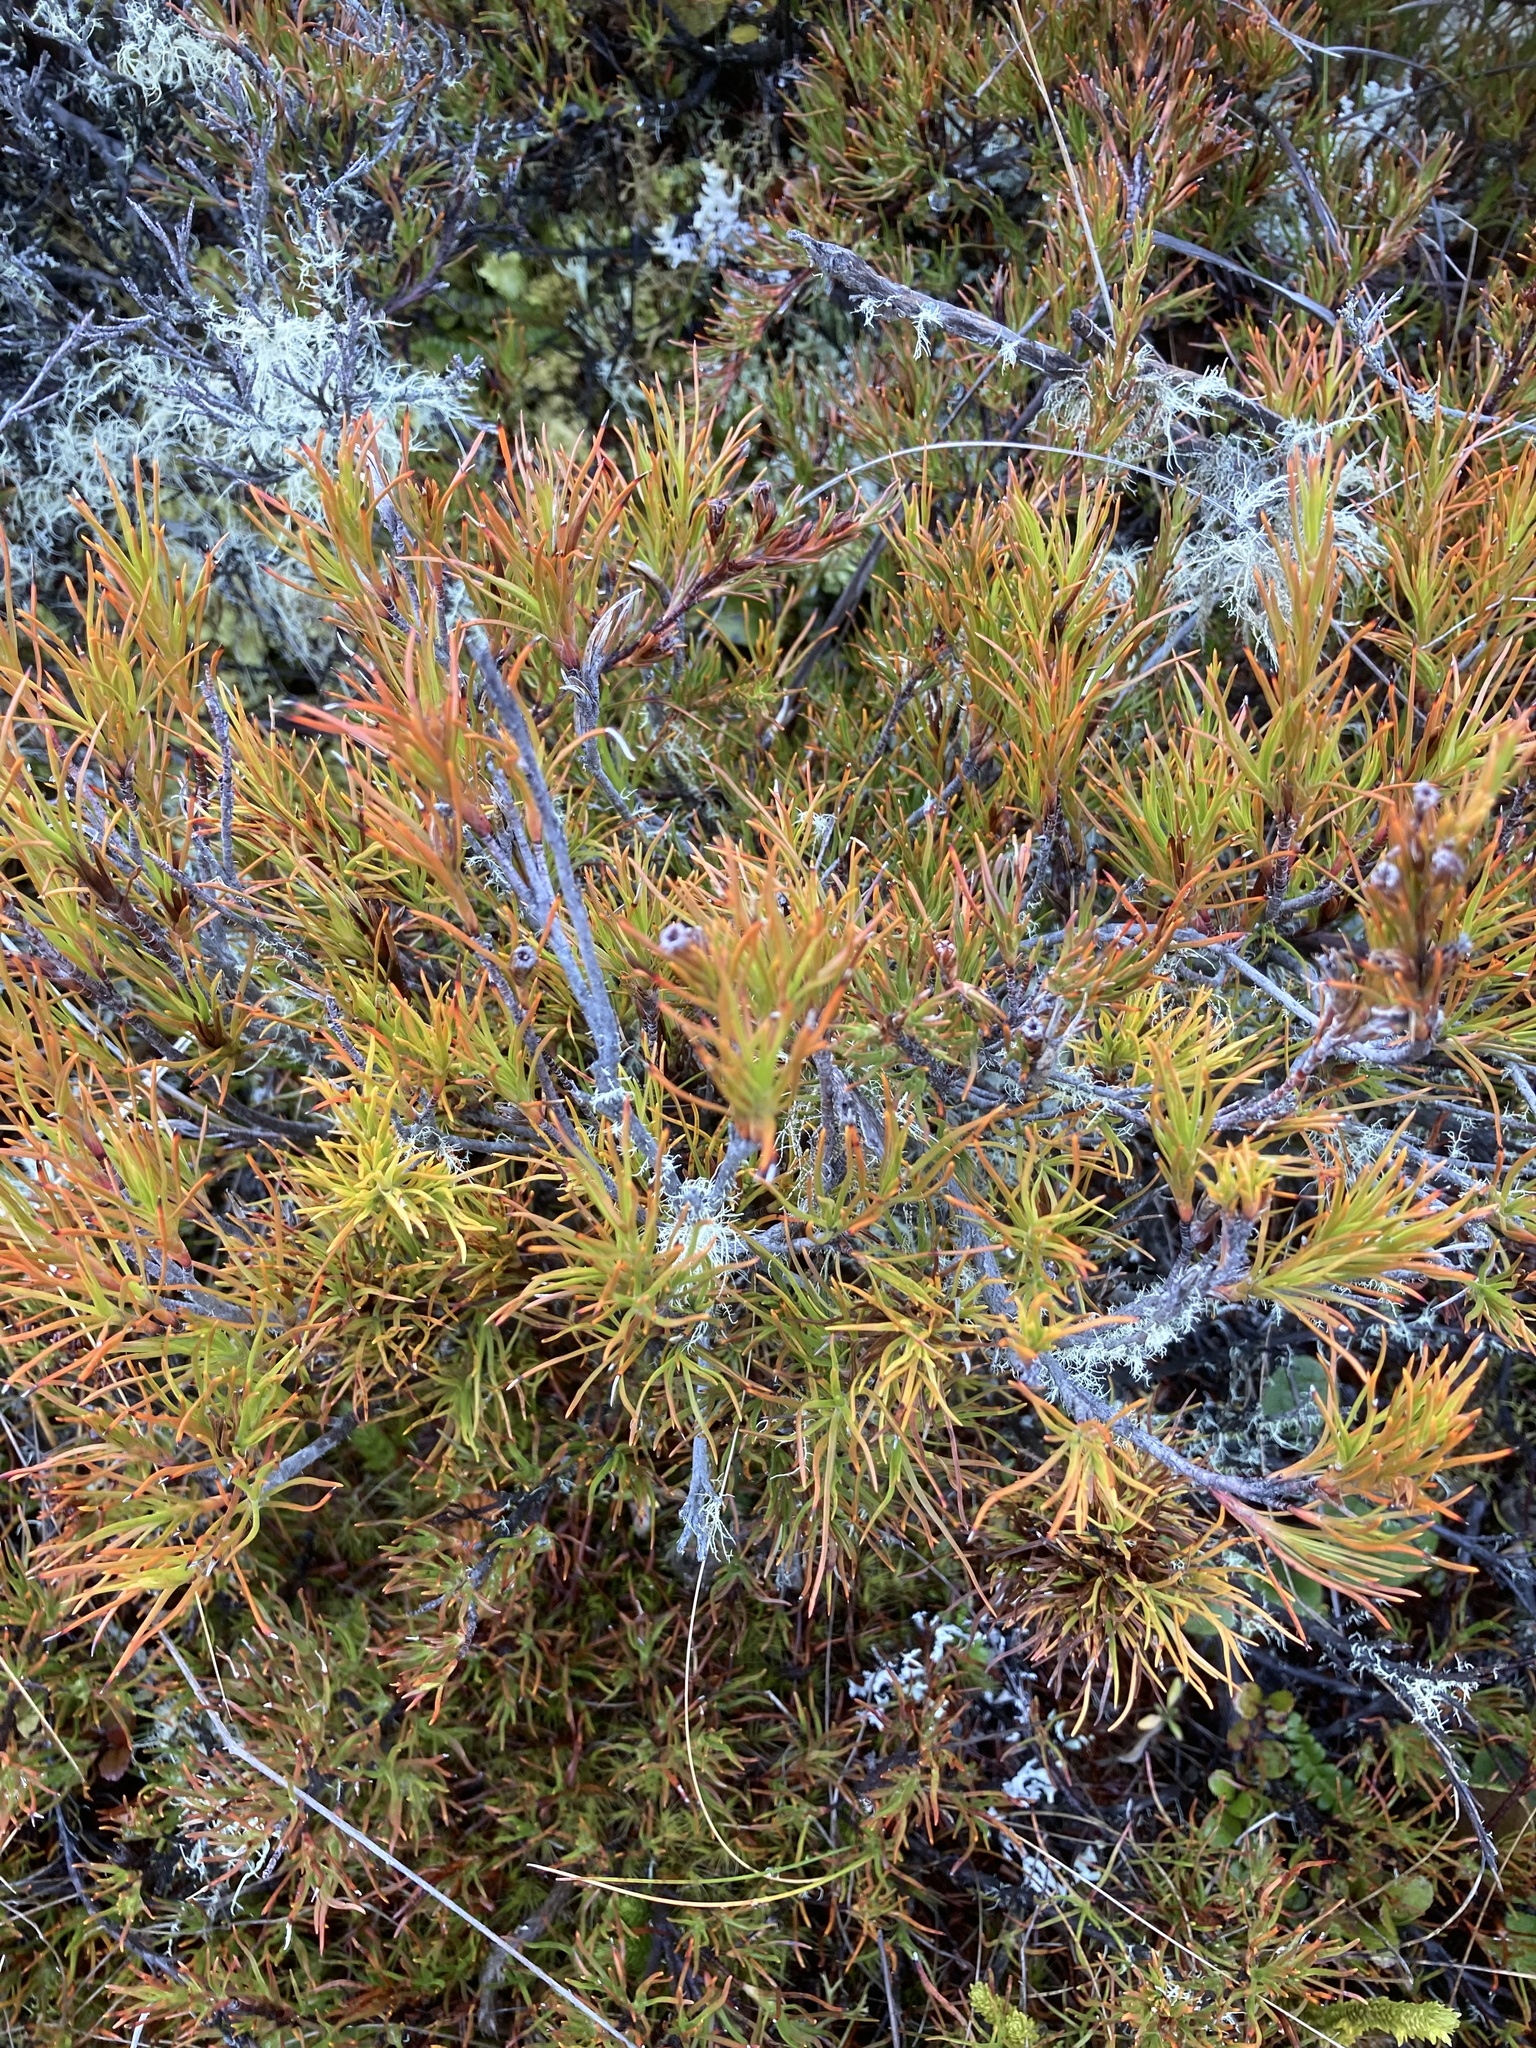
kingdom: Plantae
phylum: Tracheophyta
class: Magnoliopsida
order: Ericales
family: Ericaceae
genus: Dracophyllum
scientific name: Dracophyllum rosmarinifolium
